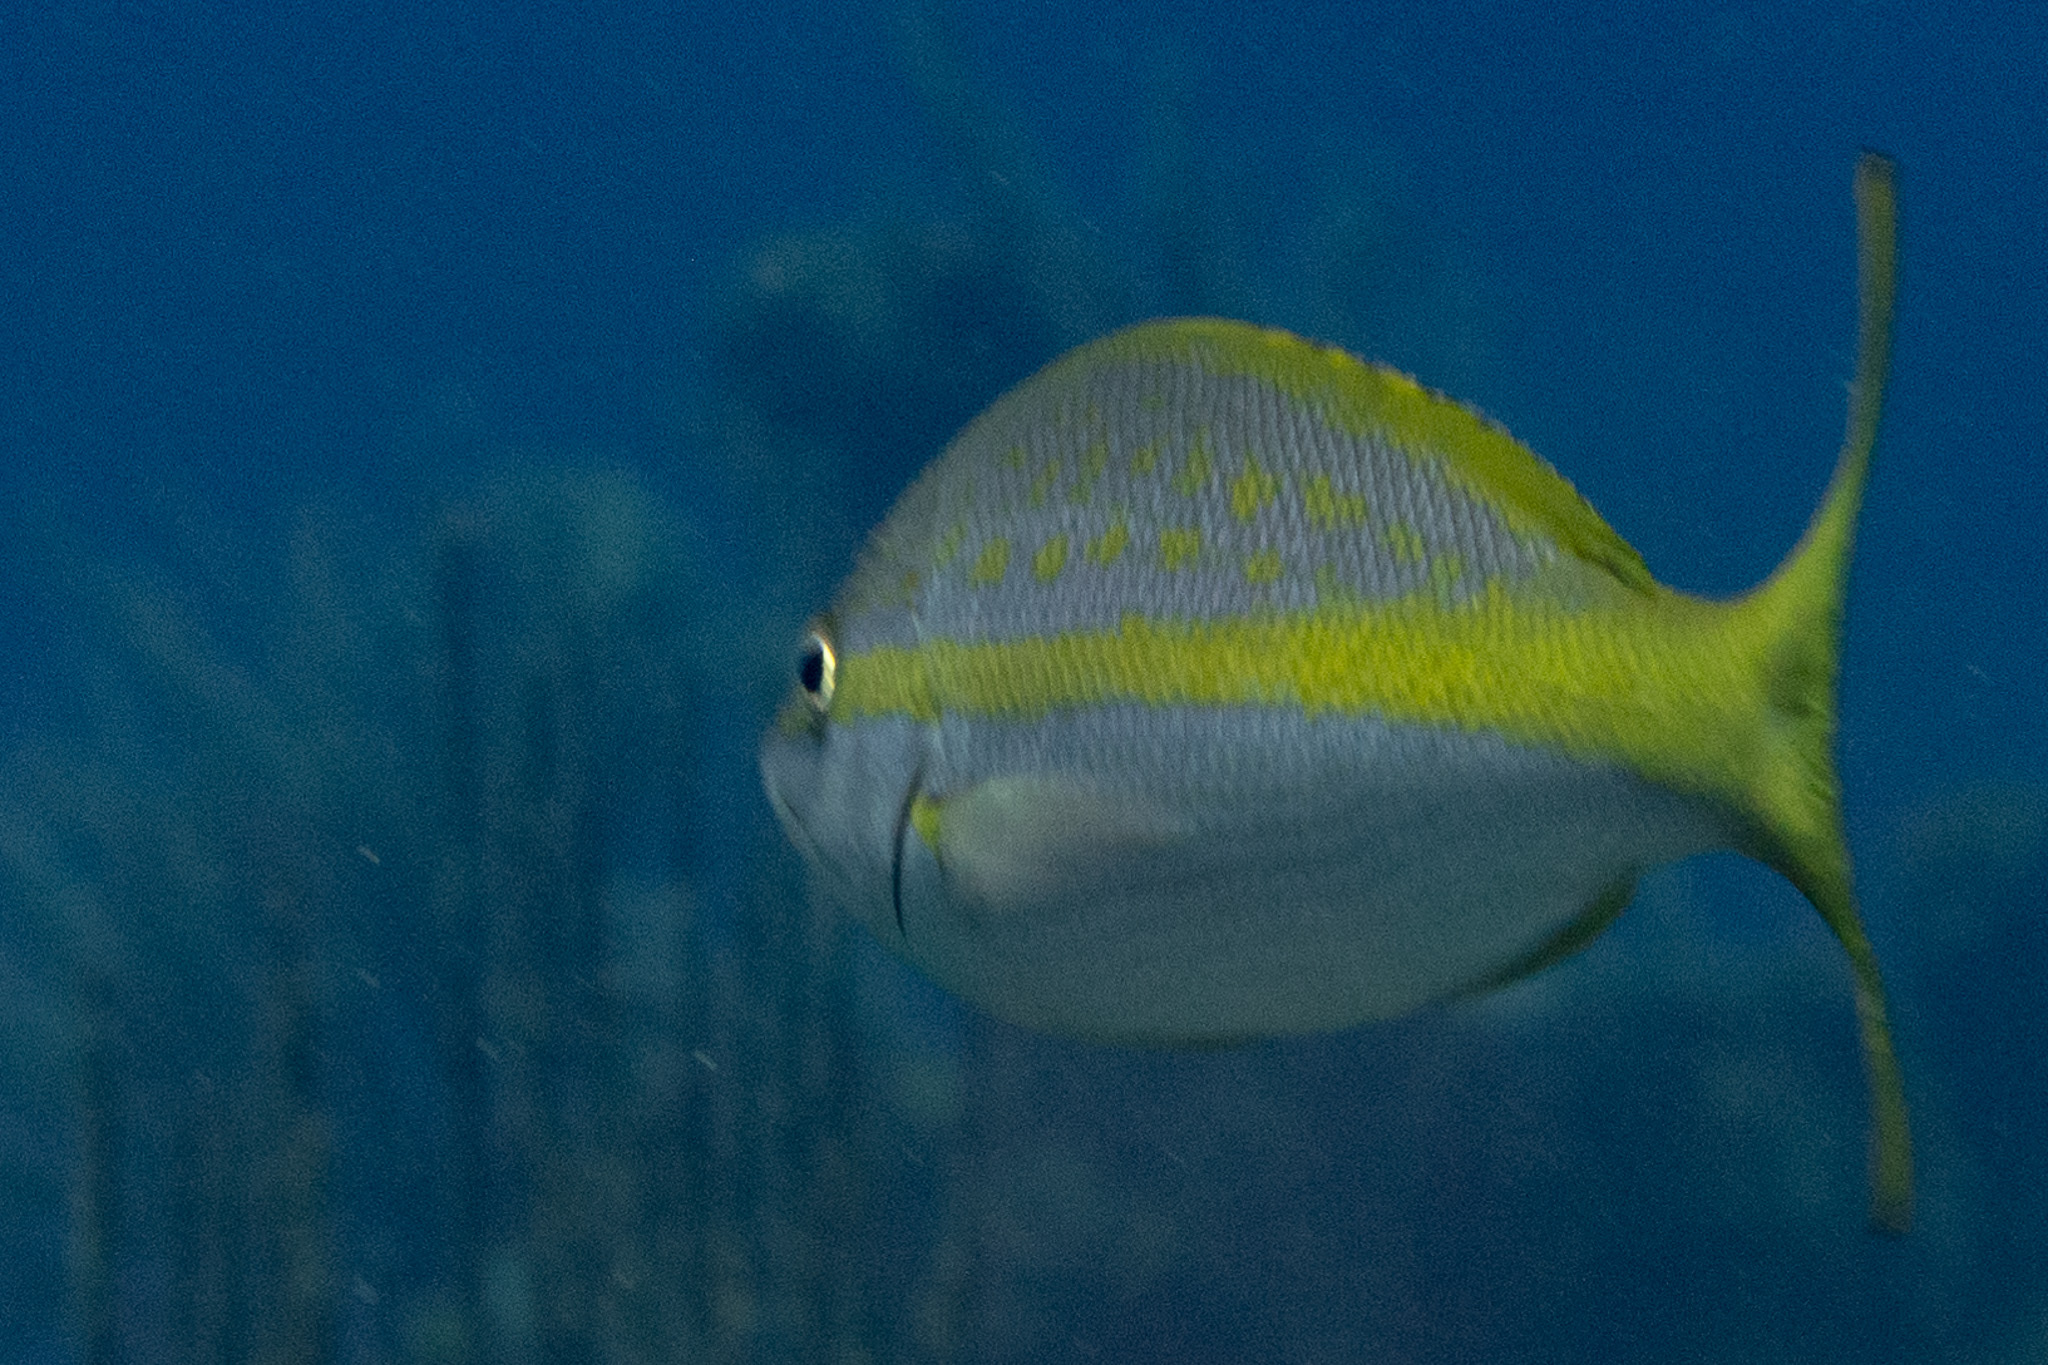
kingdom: Animalia
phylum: Chordata
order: Perciformes
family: Lutjanidae
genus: Ocyurus
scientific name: Ocyurus chrysurus
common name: Yellowtail snapper
